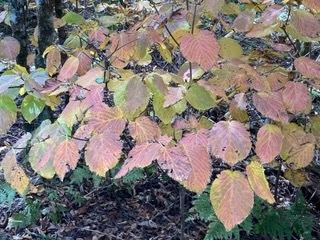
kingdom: Plantae
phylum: Tracheophyta
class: Magnoliopsida
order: Dipsacales
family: Viburnaceae
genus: Viburnum
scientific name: Viburnum lantanoides
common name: Hobblebush
